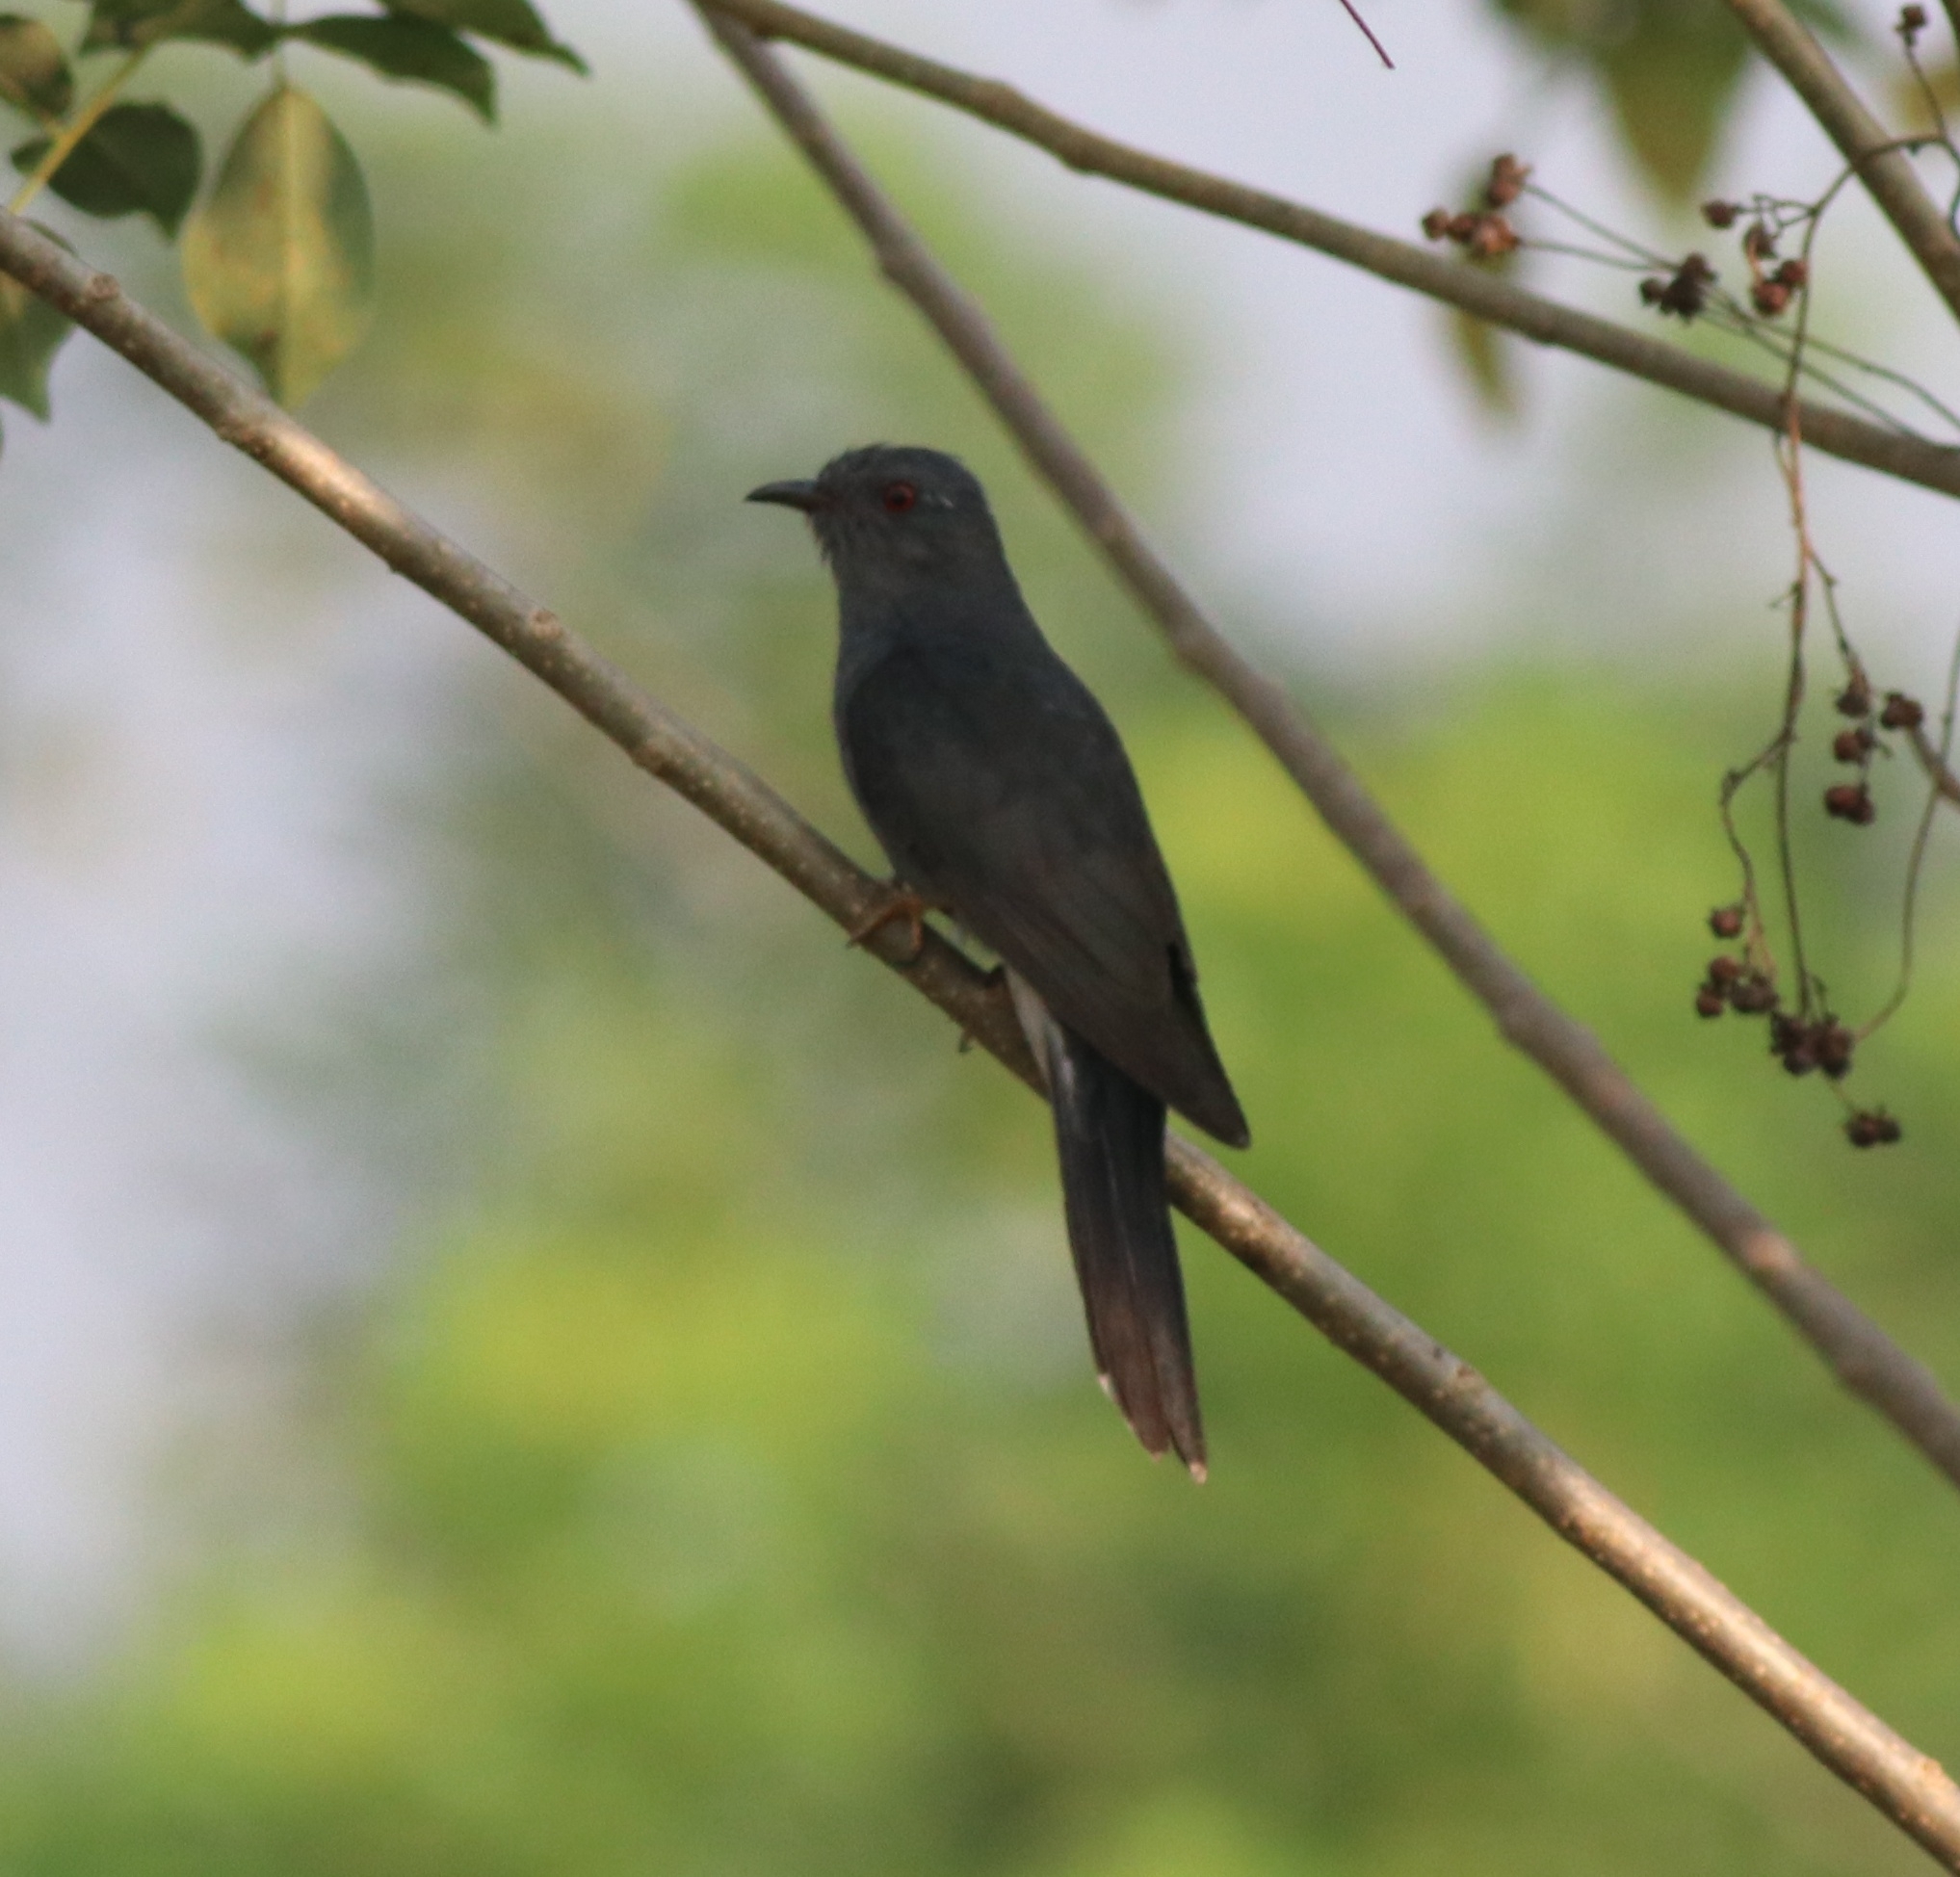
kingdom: Animalia
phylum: Chordata
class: Aves
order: Cuculiformes
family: Cuculidae
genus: Cacomantis
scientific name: Cacomantis passerinus
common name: Grey-bellied cuckoo
